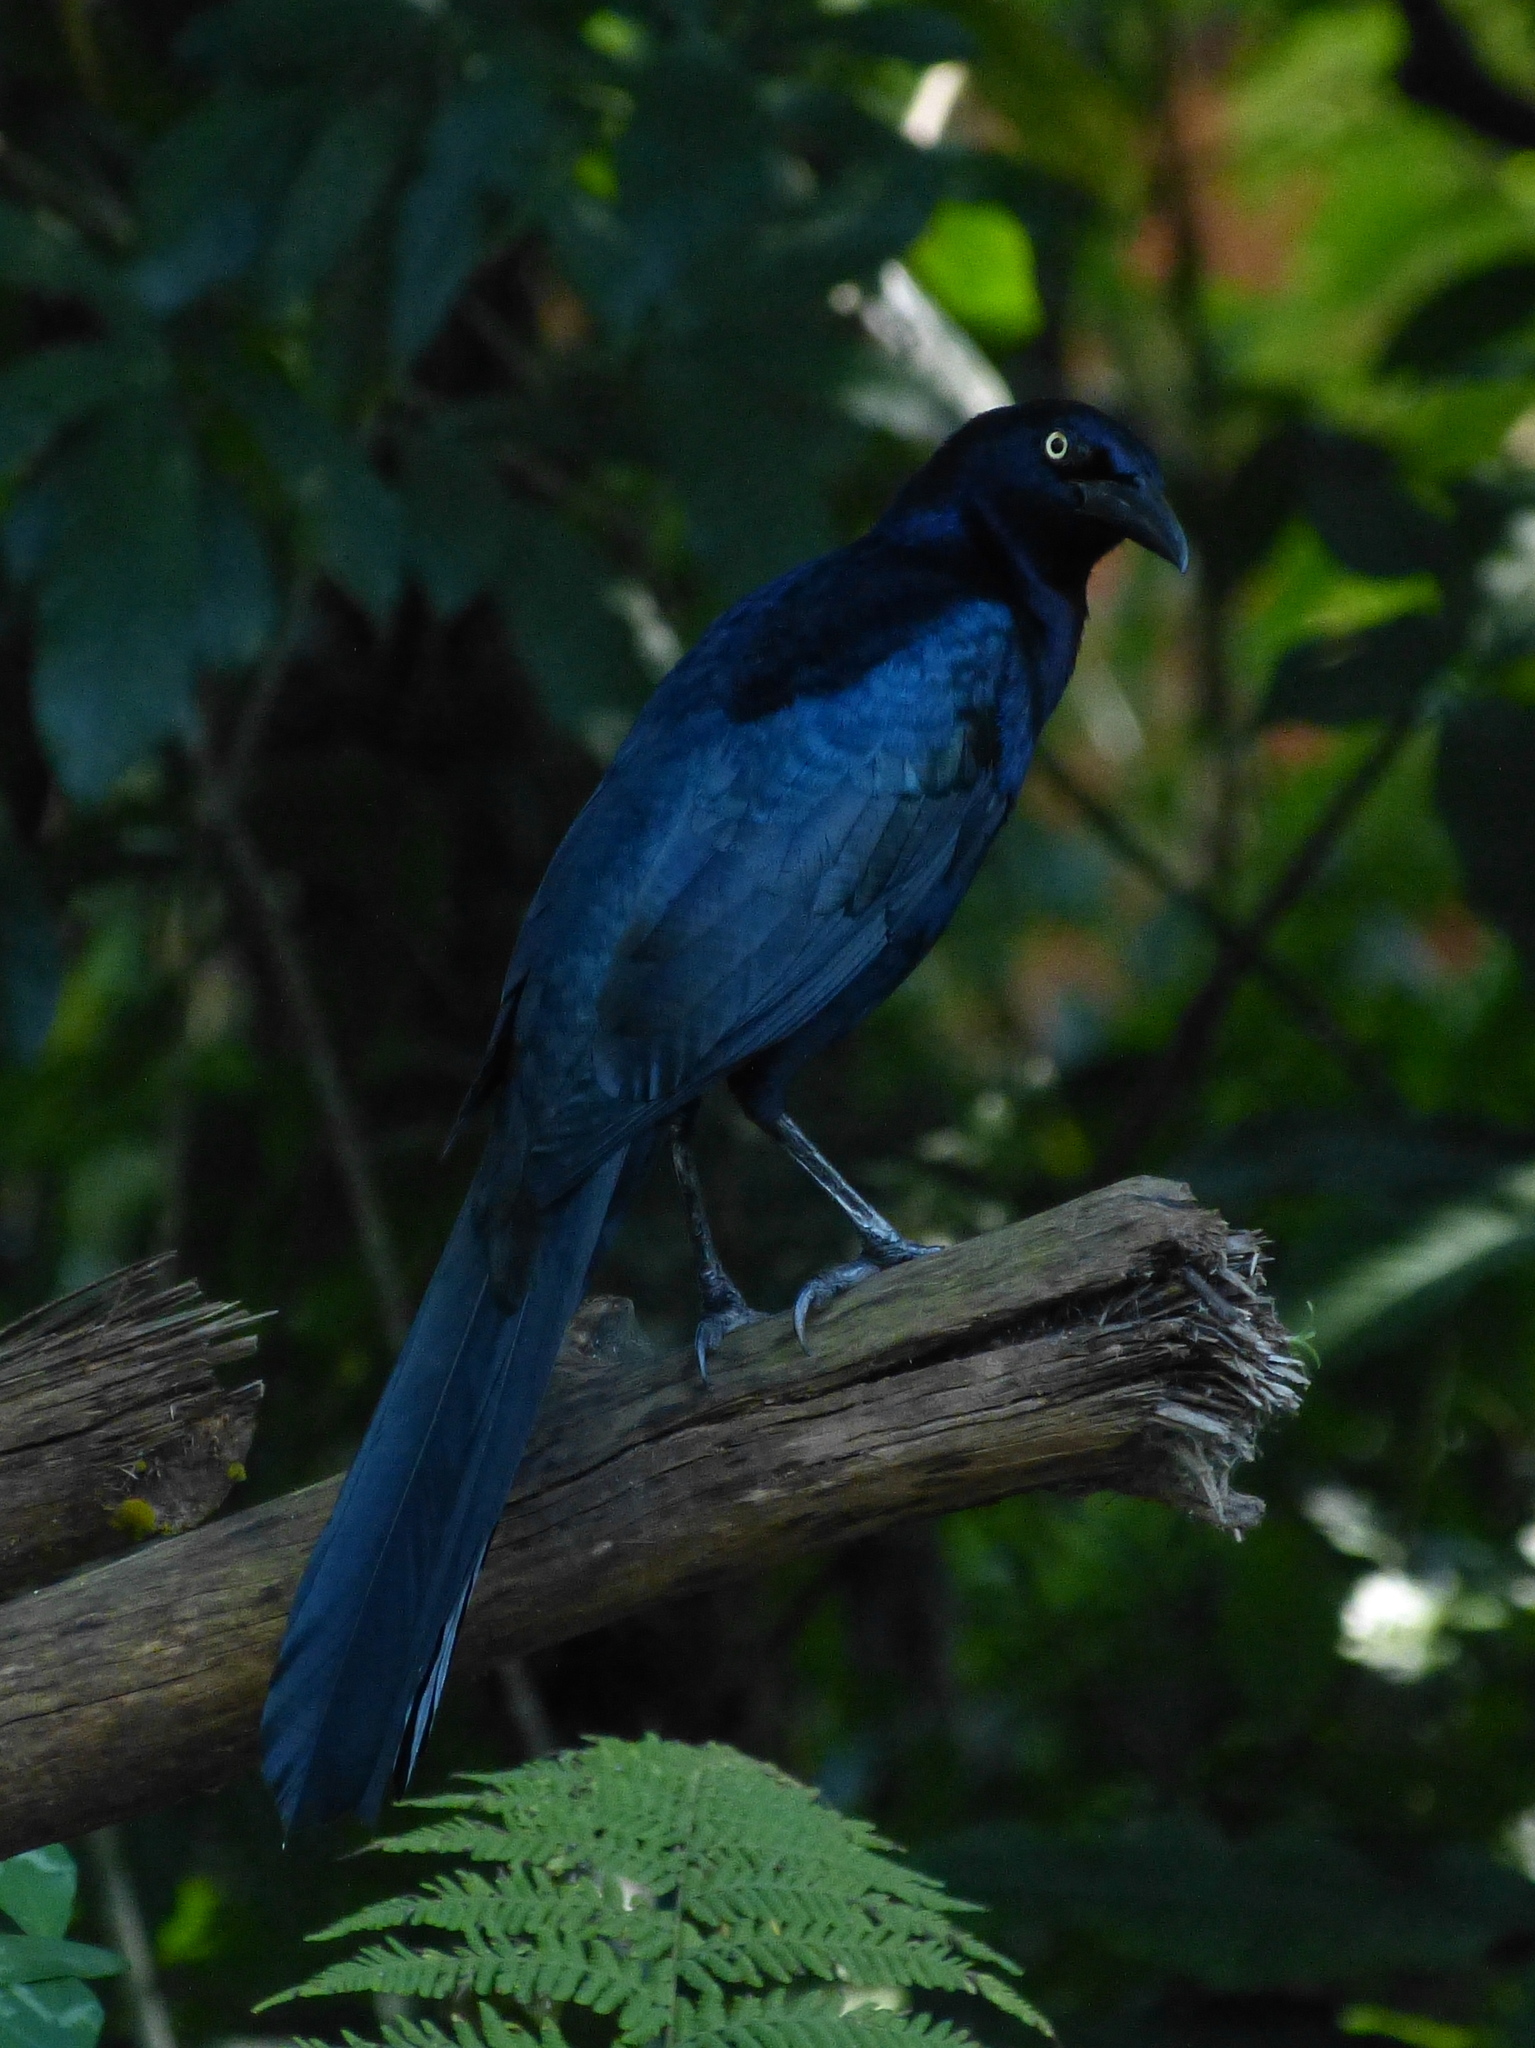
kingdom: Animalia
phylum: Chordata
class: Aves
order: Passeriformes
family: Icteridae
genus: Quiscalus
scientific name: Quiscalus mexicanus
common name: Great-tailed grackle
